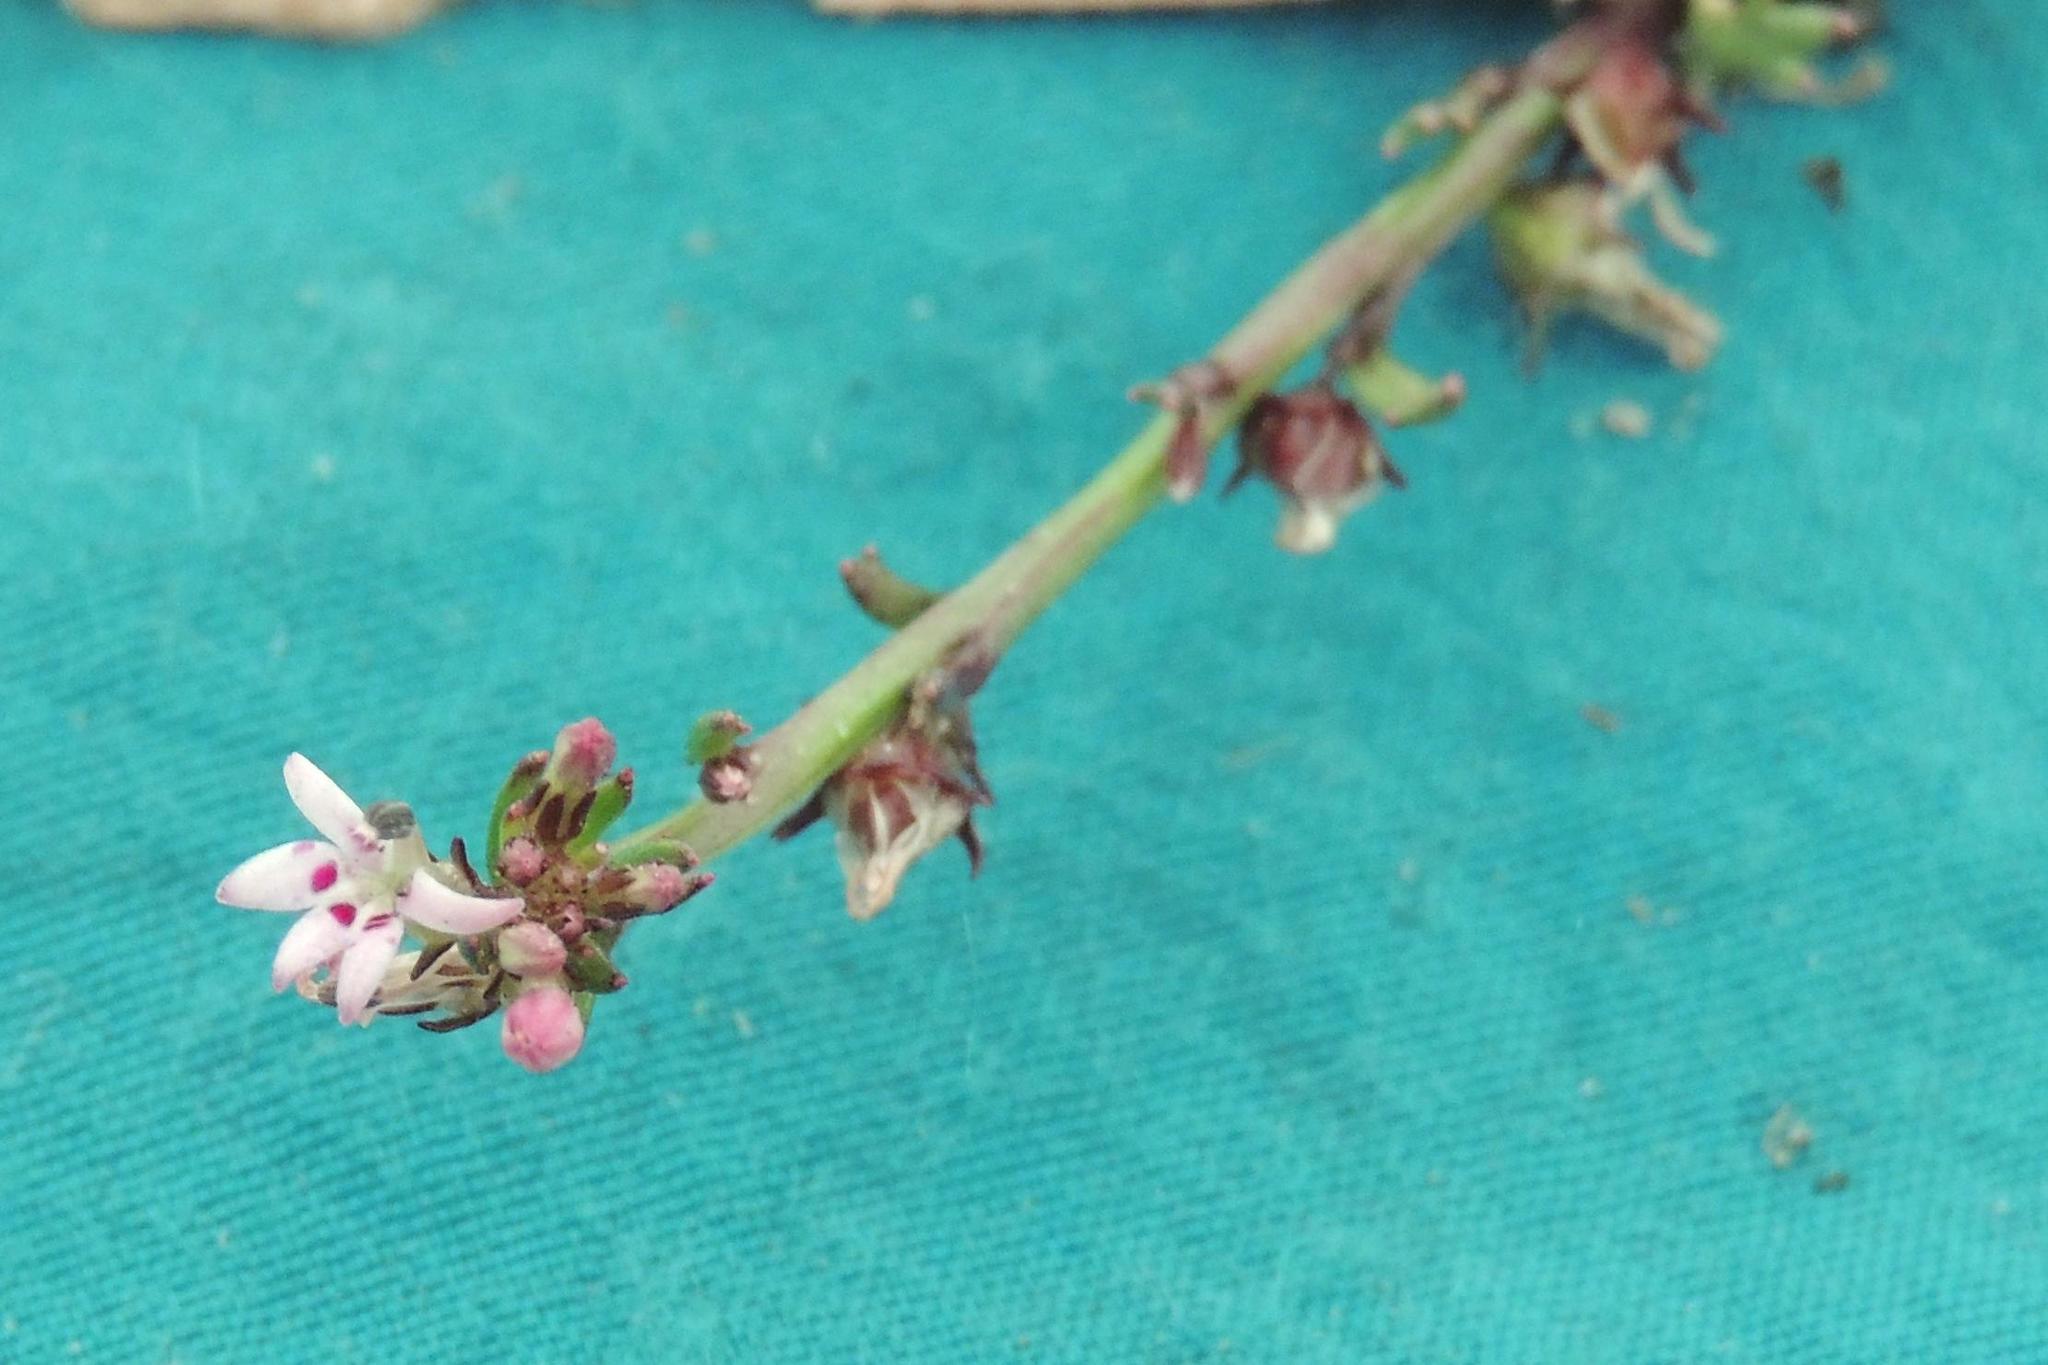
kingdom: Plantae
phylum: Tracheophyta
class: Magnoliopsida
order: Asterales
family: Campanulaceae
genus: Lobelia
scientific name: Lobelia jasionoides
